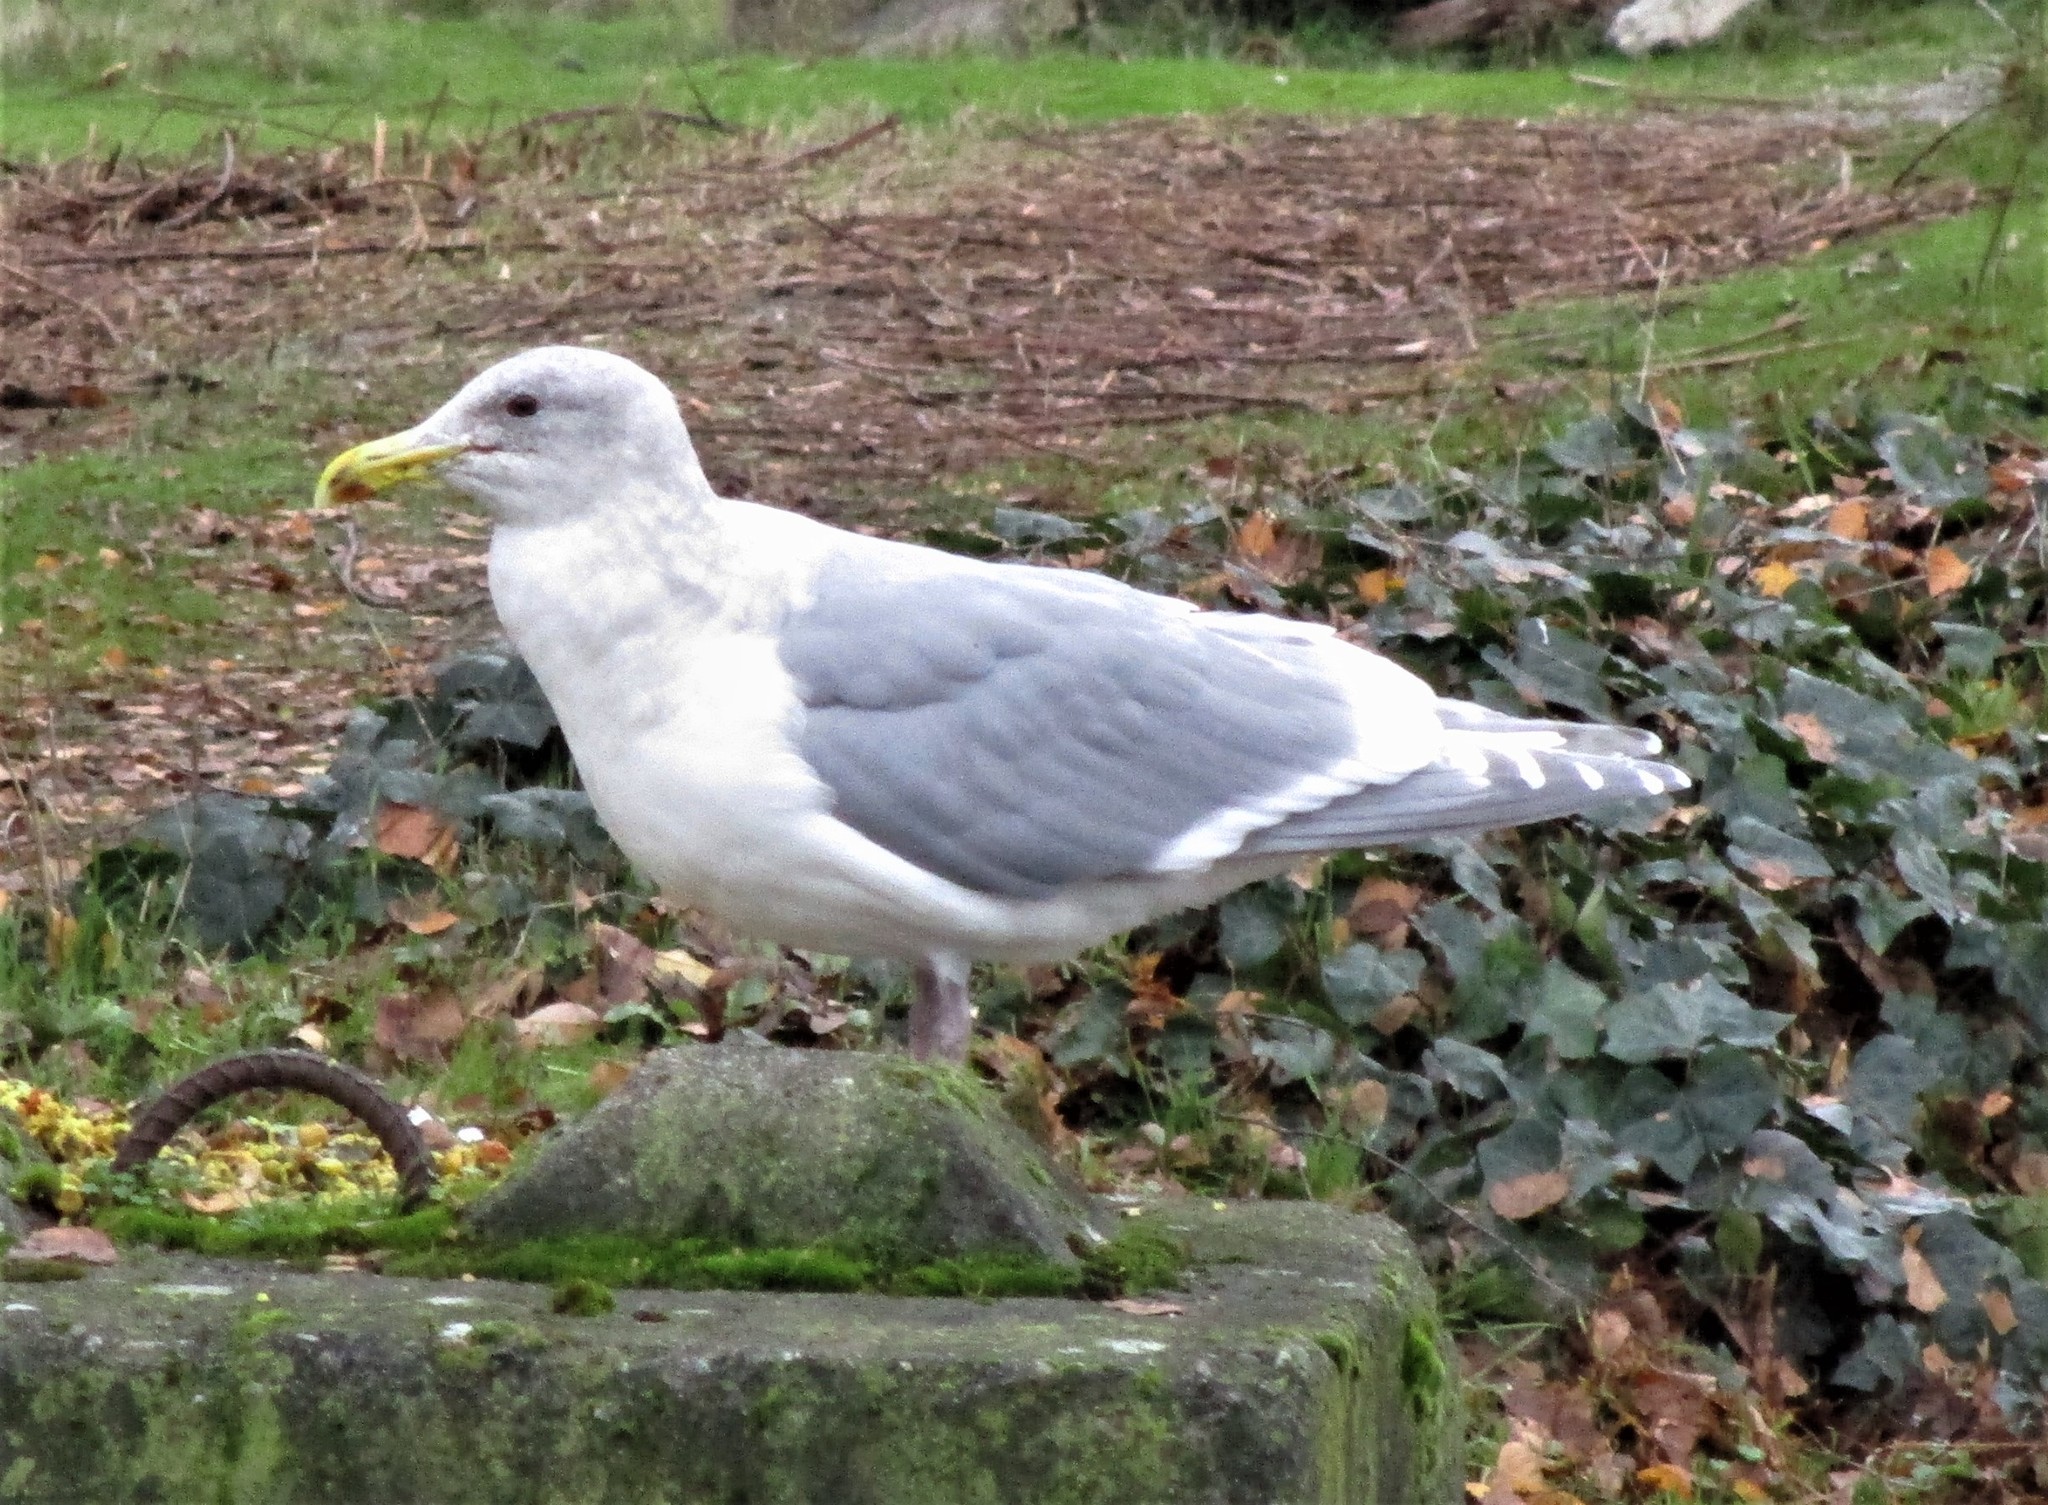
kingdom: Animalia
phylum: Chordata
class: Aves
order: Charadriiformes
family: Laridae
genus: Larus
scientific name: Larus glaucescens
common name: Glaucous-winged gull
